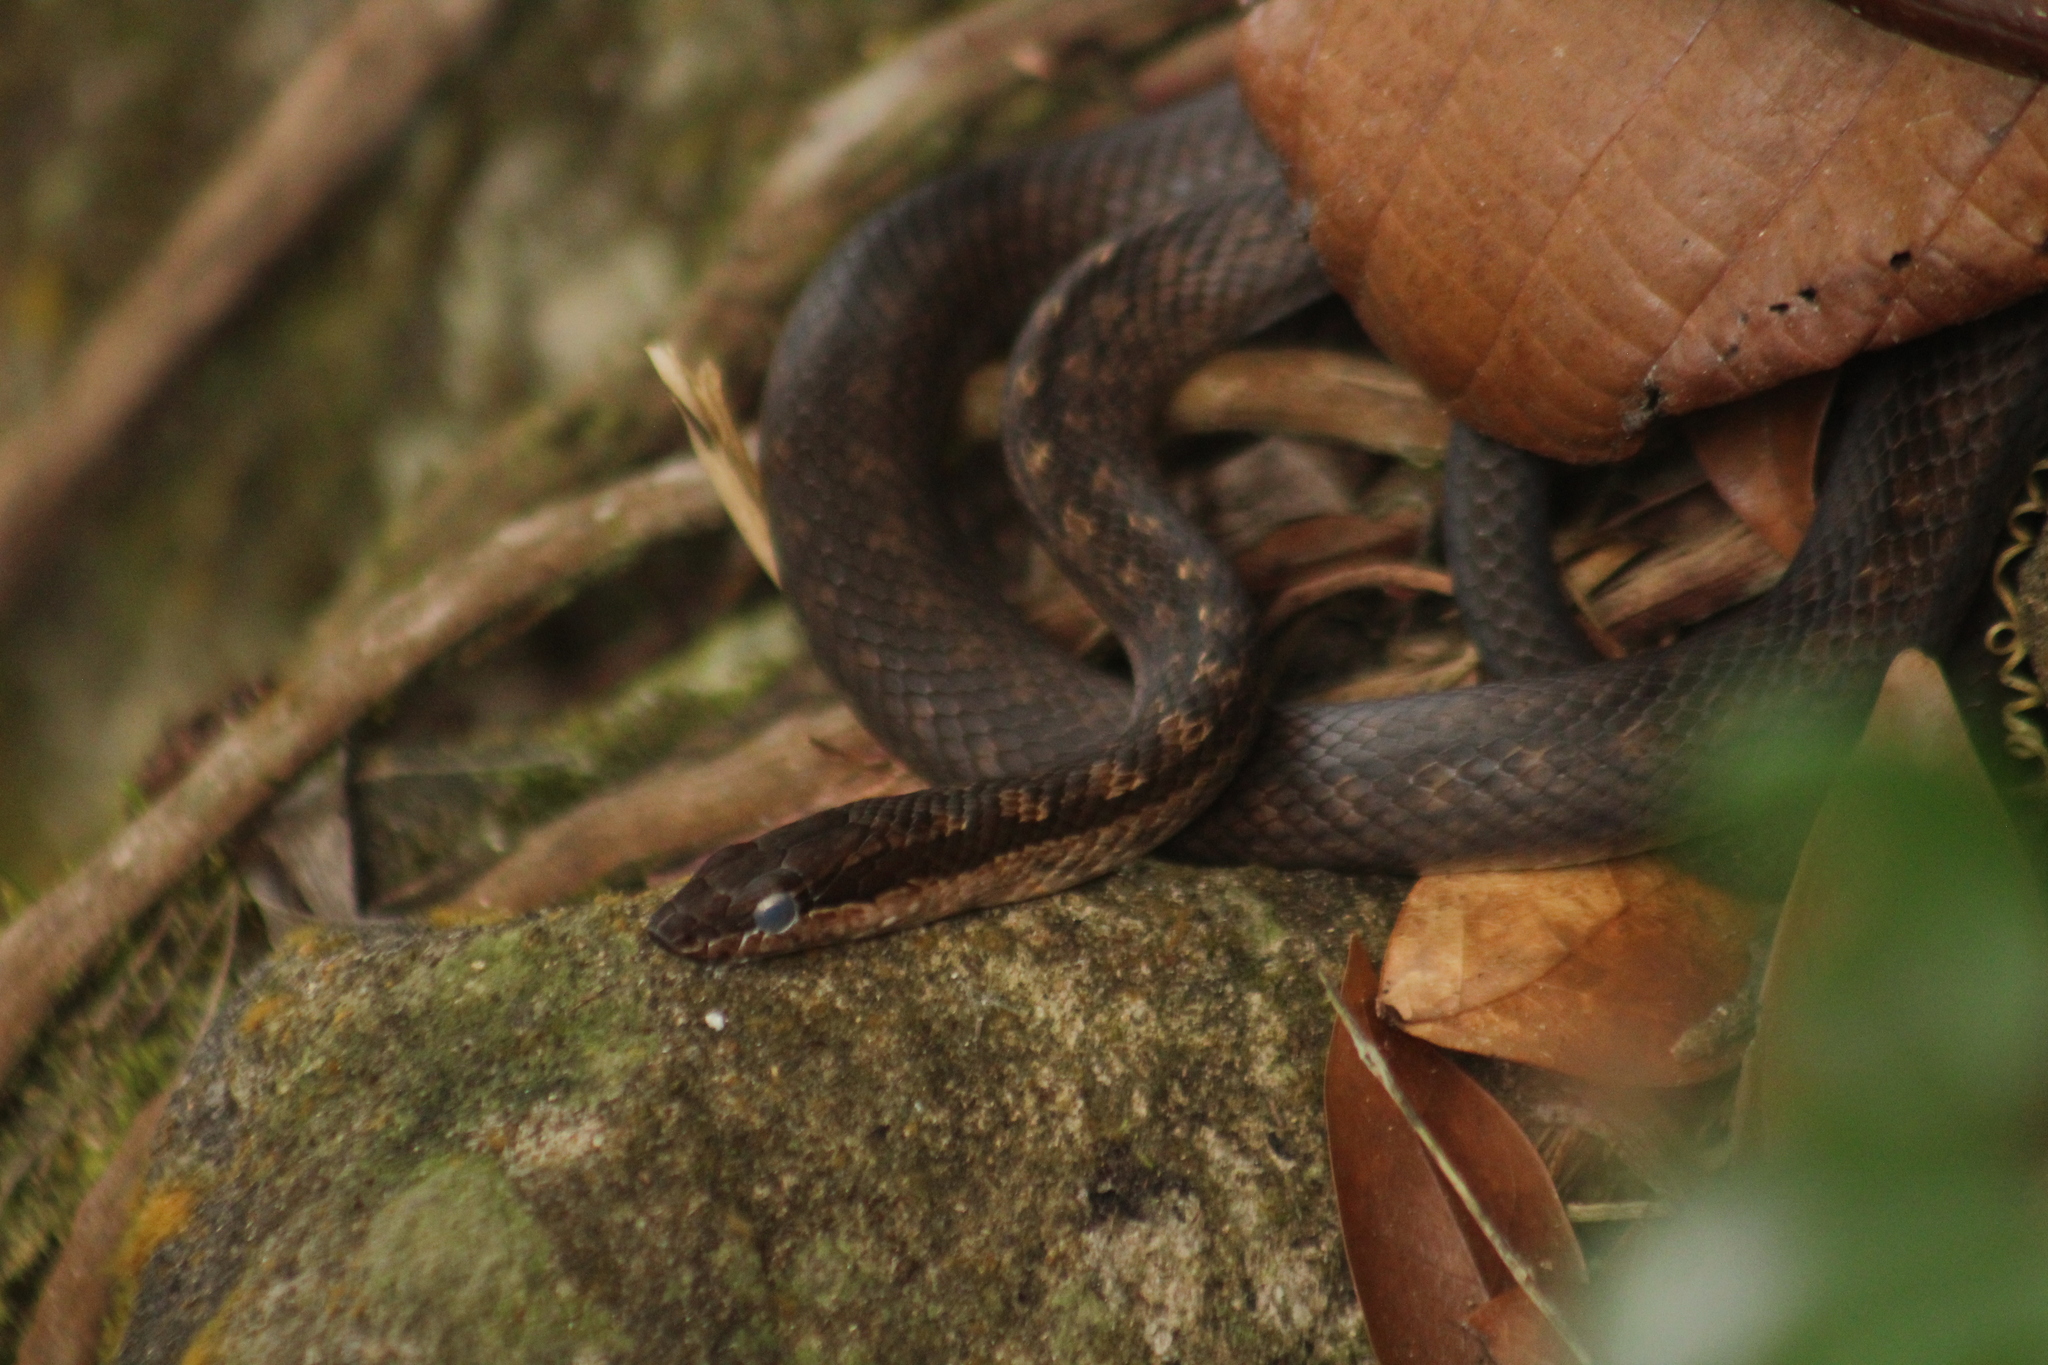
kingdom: Animalia
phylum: Chordata
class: Squamata
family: Colubridae
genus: Alsophis
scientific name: Alsophis rufiventris
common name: Orange-bellied racer
